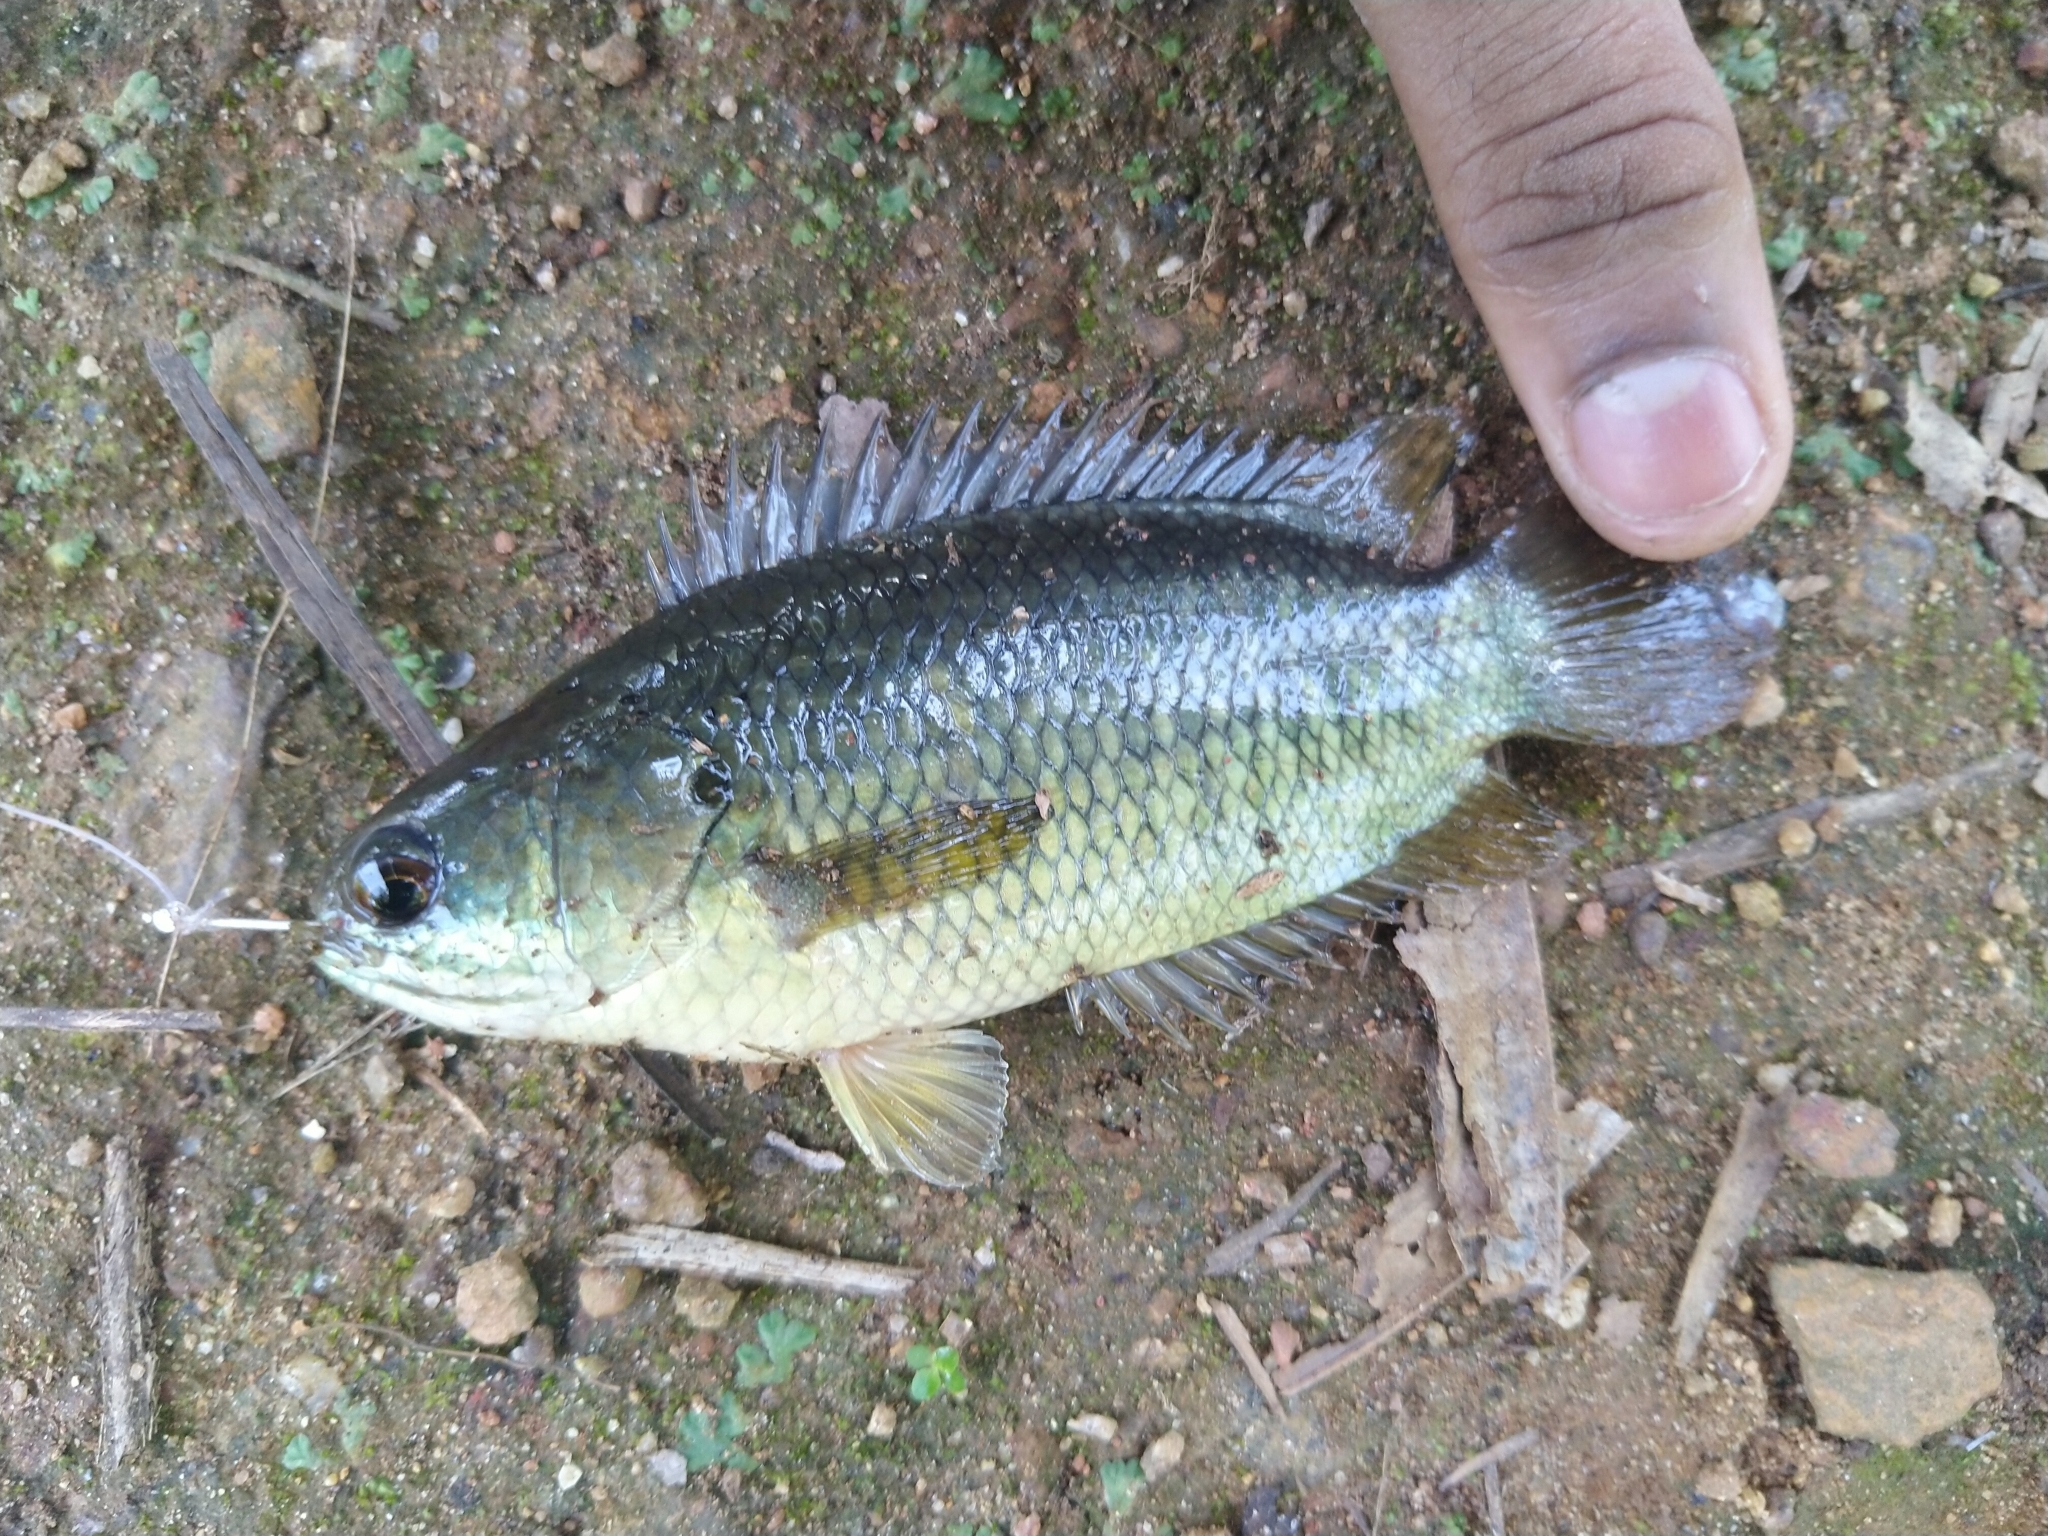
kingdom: Animalia
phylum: Chordata
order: Perciformes
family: Anabantidae
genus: Anabas
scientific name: Anabas testudineus
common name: Climbing perch
